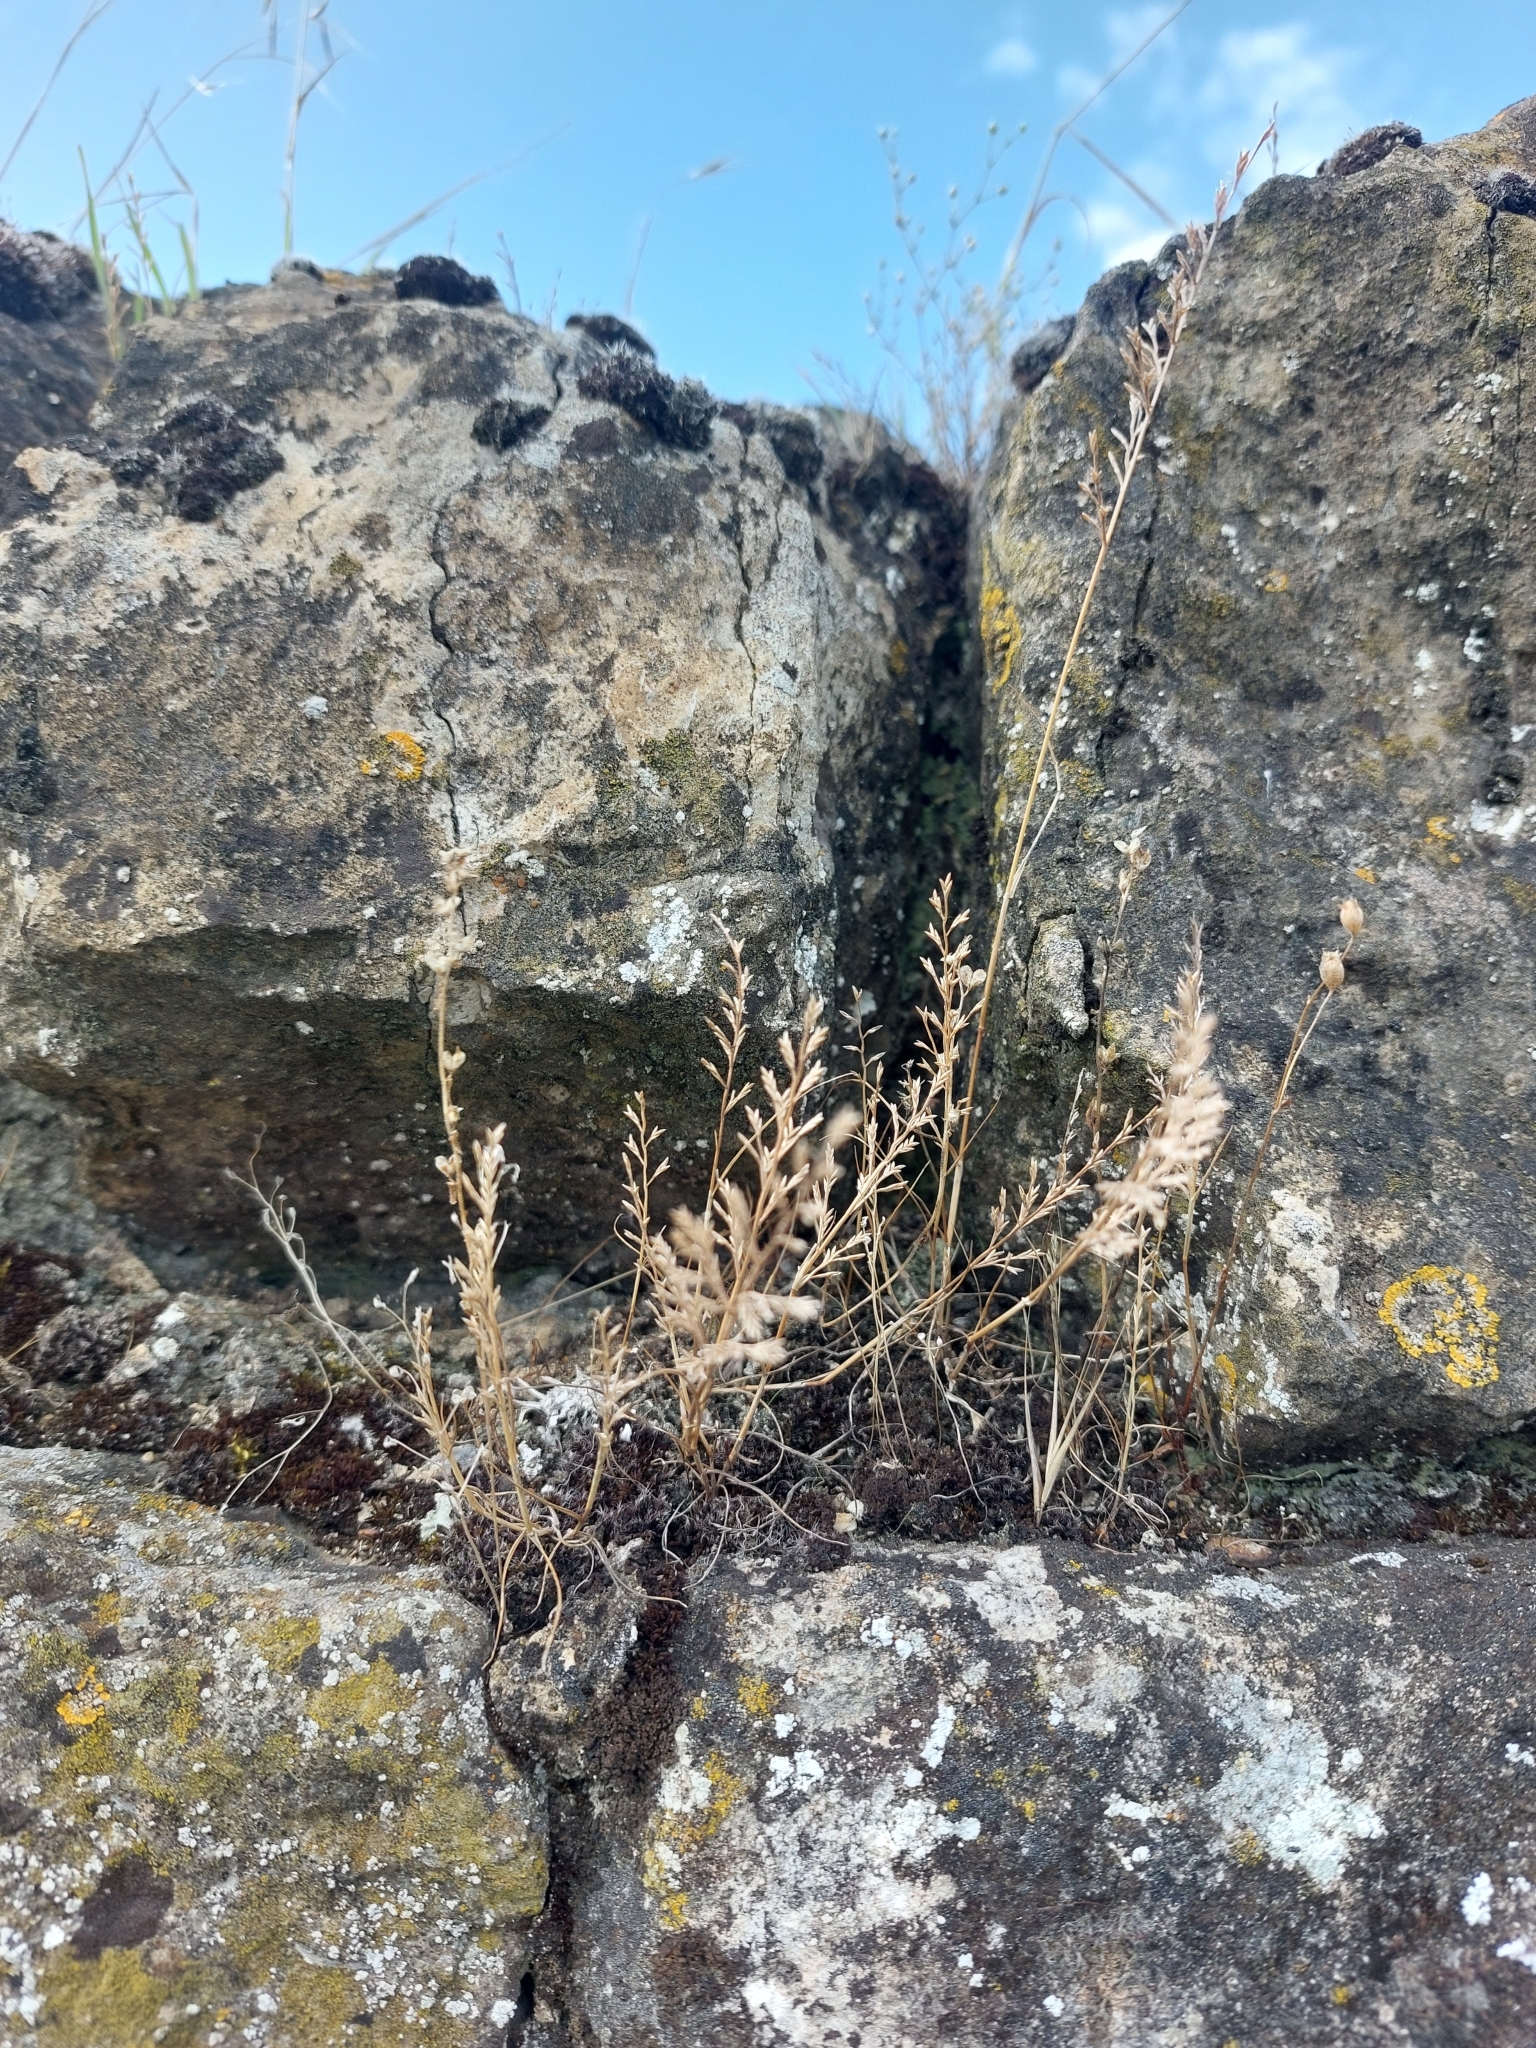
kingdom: Plantae
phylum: Tracheophyta
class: Liliopsida
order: Poales
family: Poaceae
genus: Catapodium
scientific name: Catapodium rigidum
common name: Fern-grass
